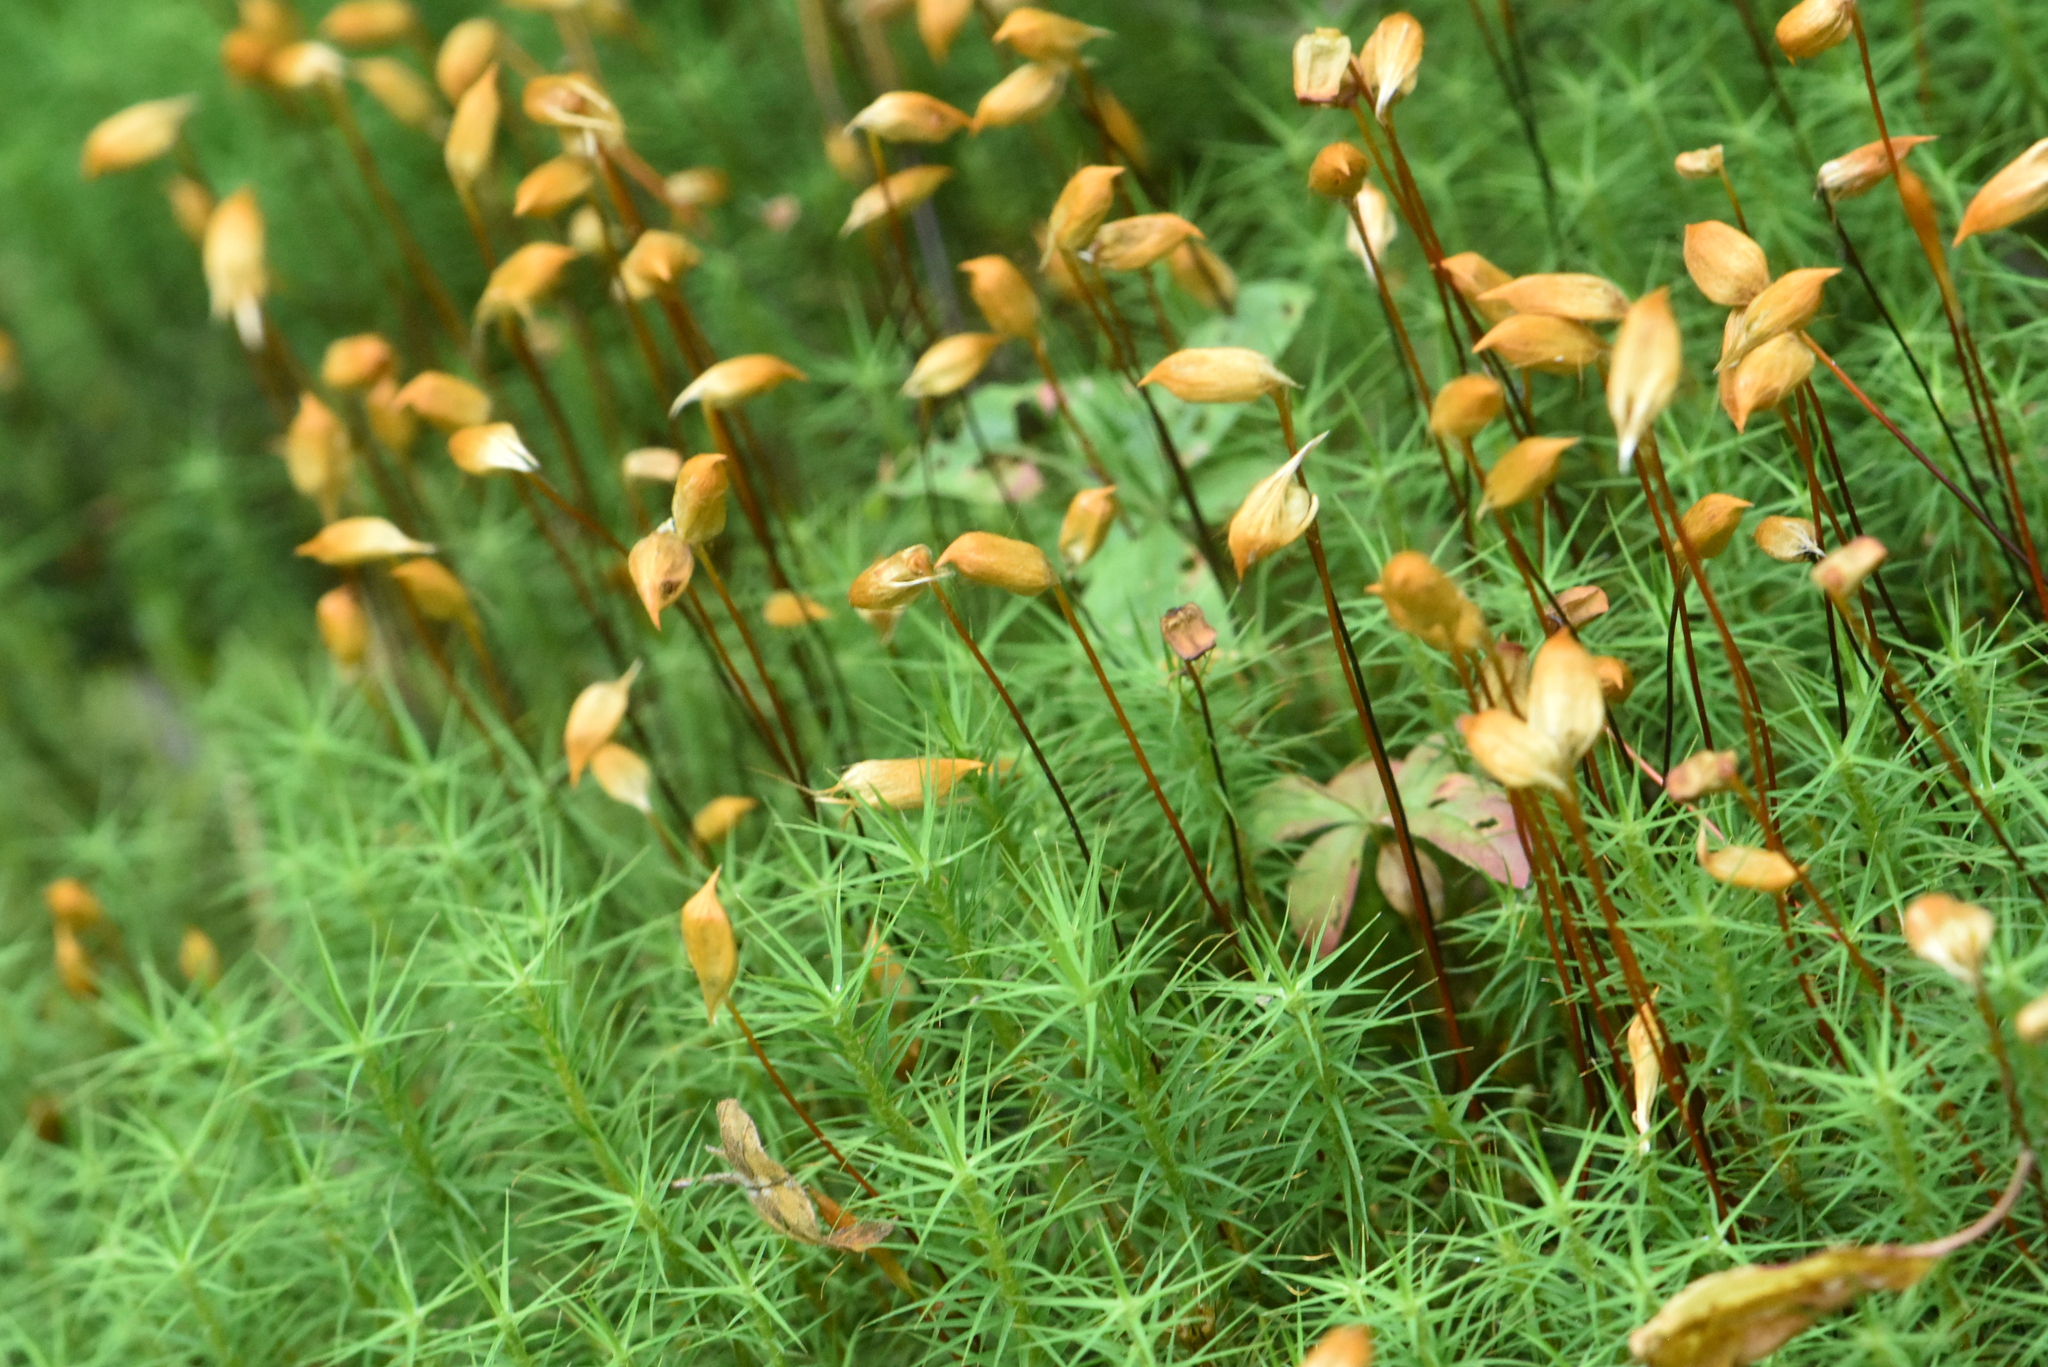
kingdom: Plantae
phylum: Bryophyta
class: Polytrichopsida
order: Polytrichales
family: Polytrichaceae
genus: Polytrichum
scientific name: Polytrichum commune
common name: Common haircap
